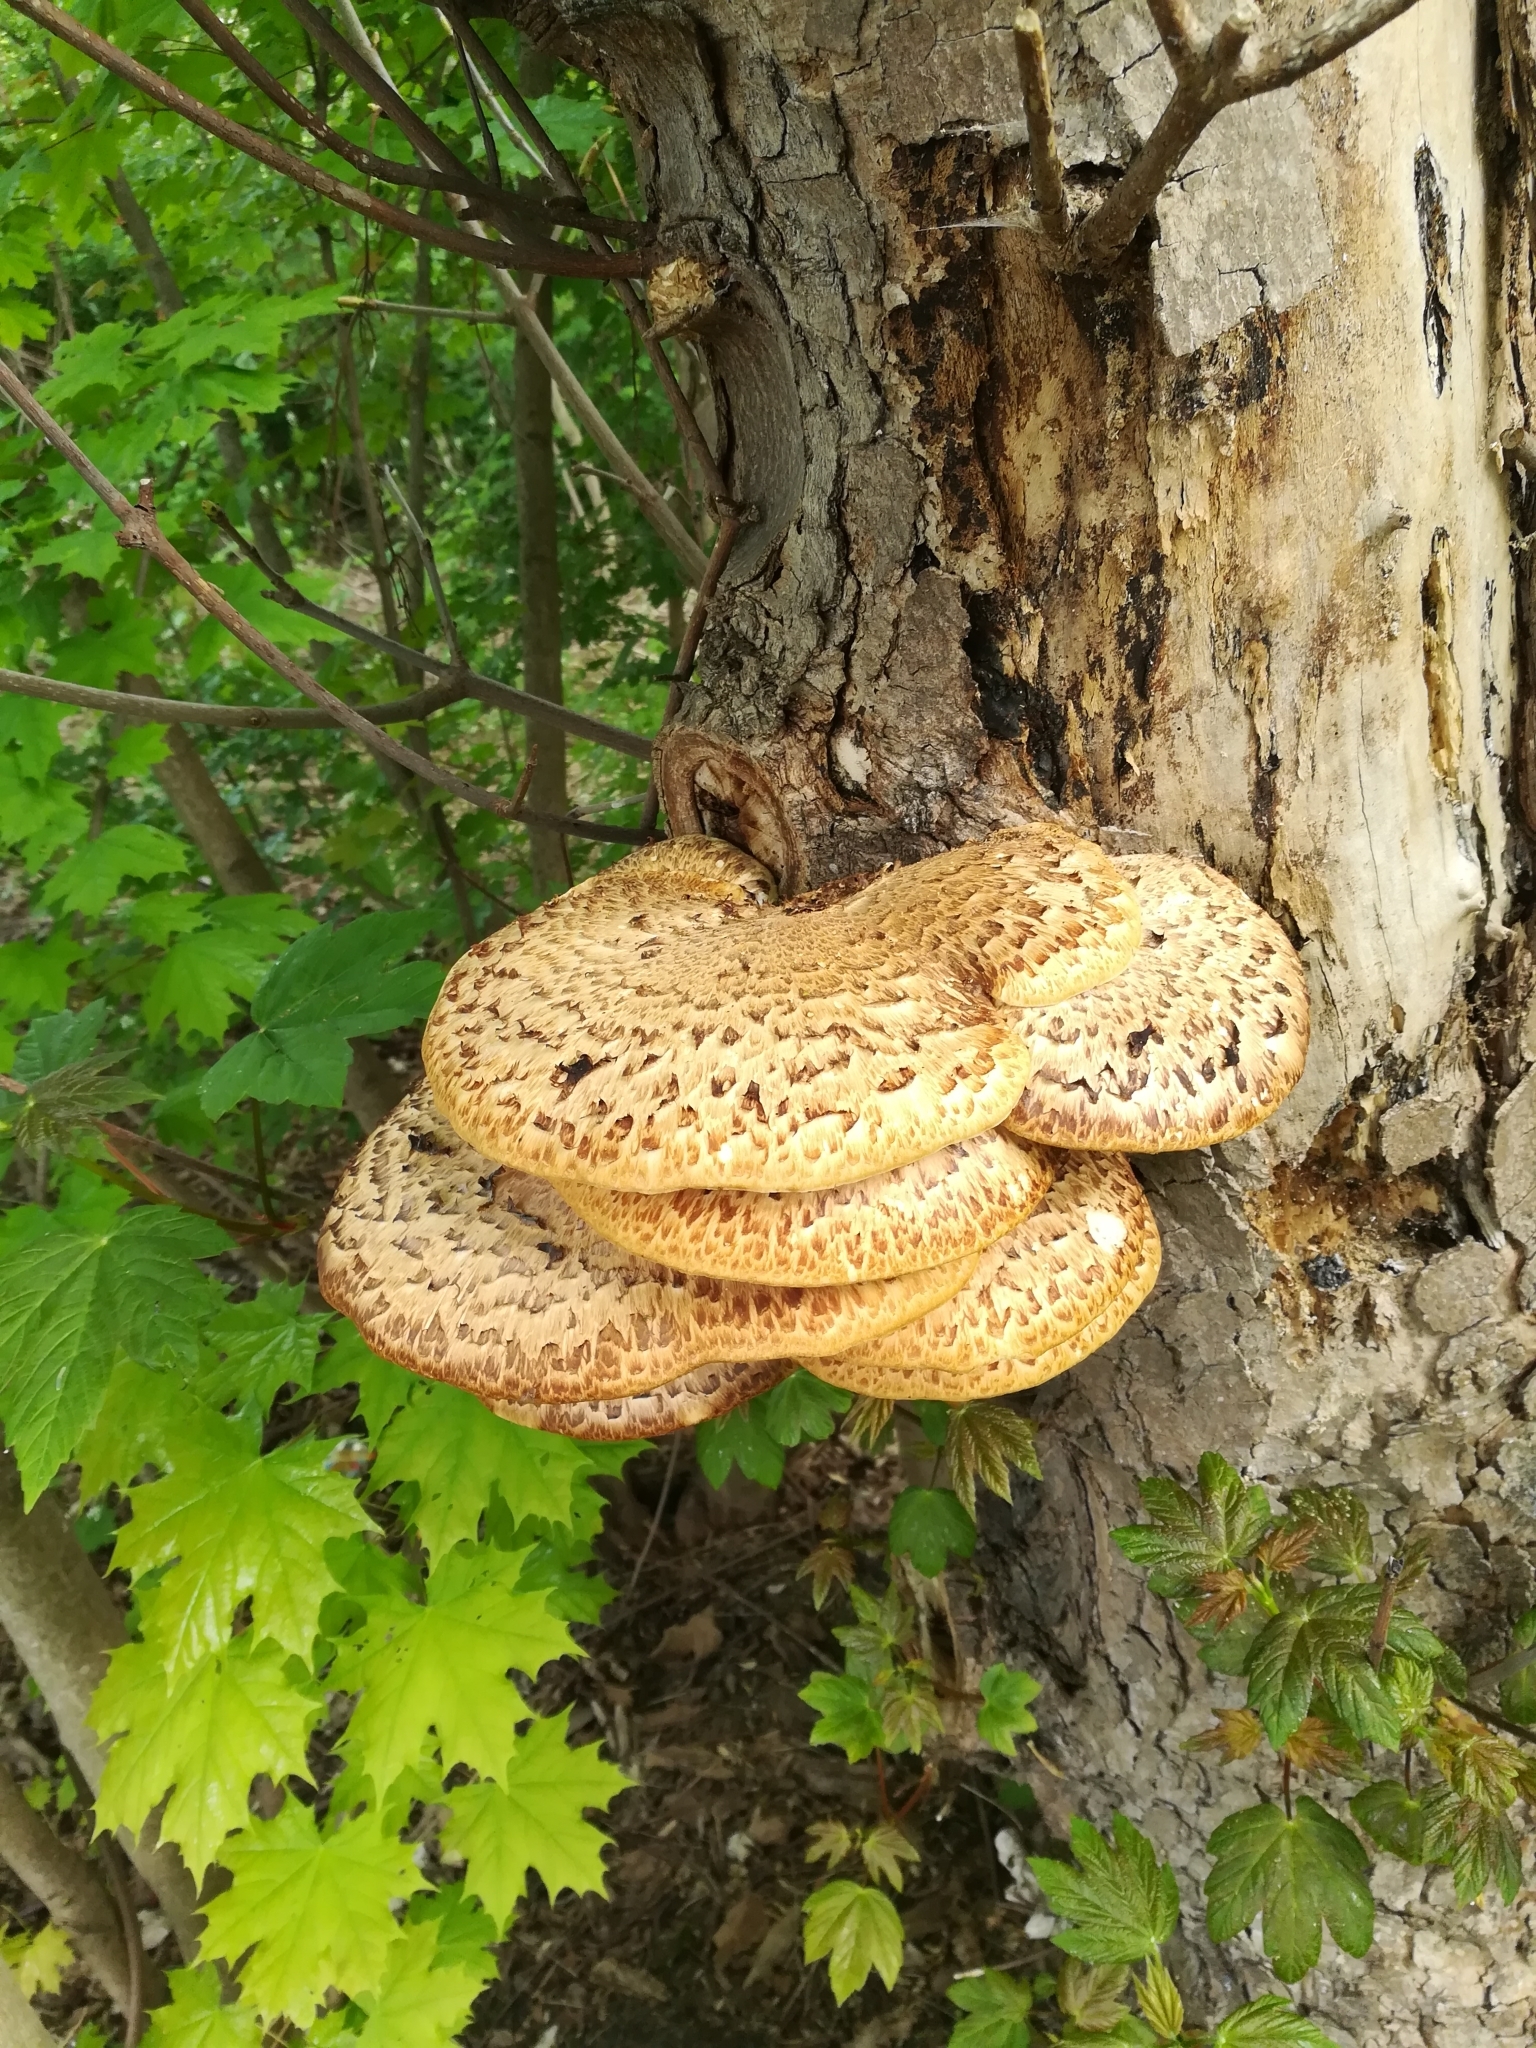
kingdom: Fungi
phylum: Basidiomycota
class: Agaricomycetes
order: Polyporales
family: Polyporaceae
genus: Cerioporus
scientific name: Cerioporus squamosus
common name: Dryad's saddle
